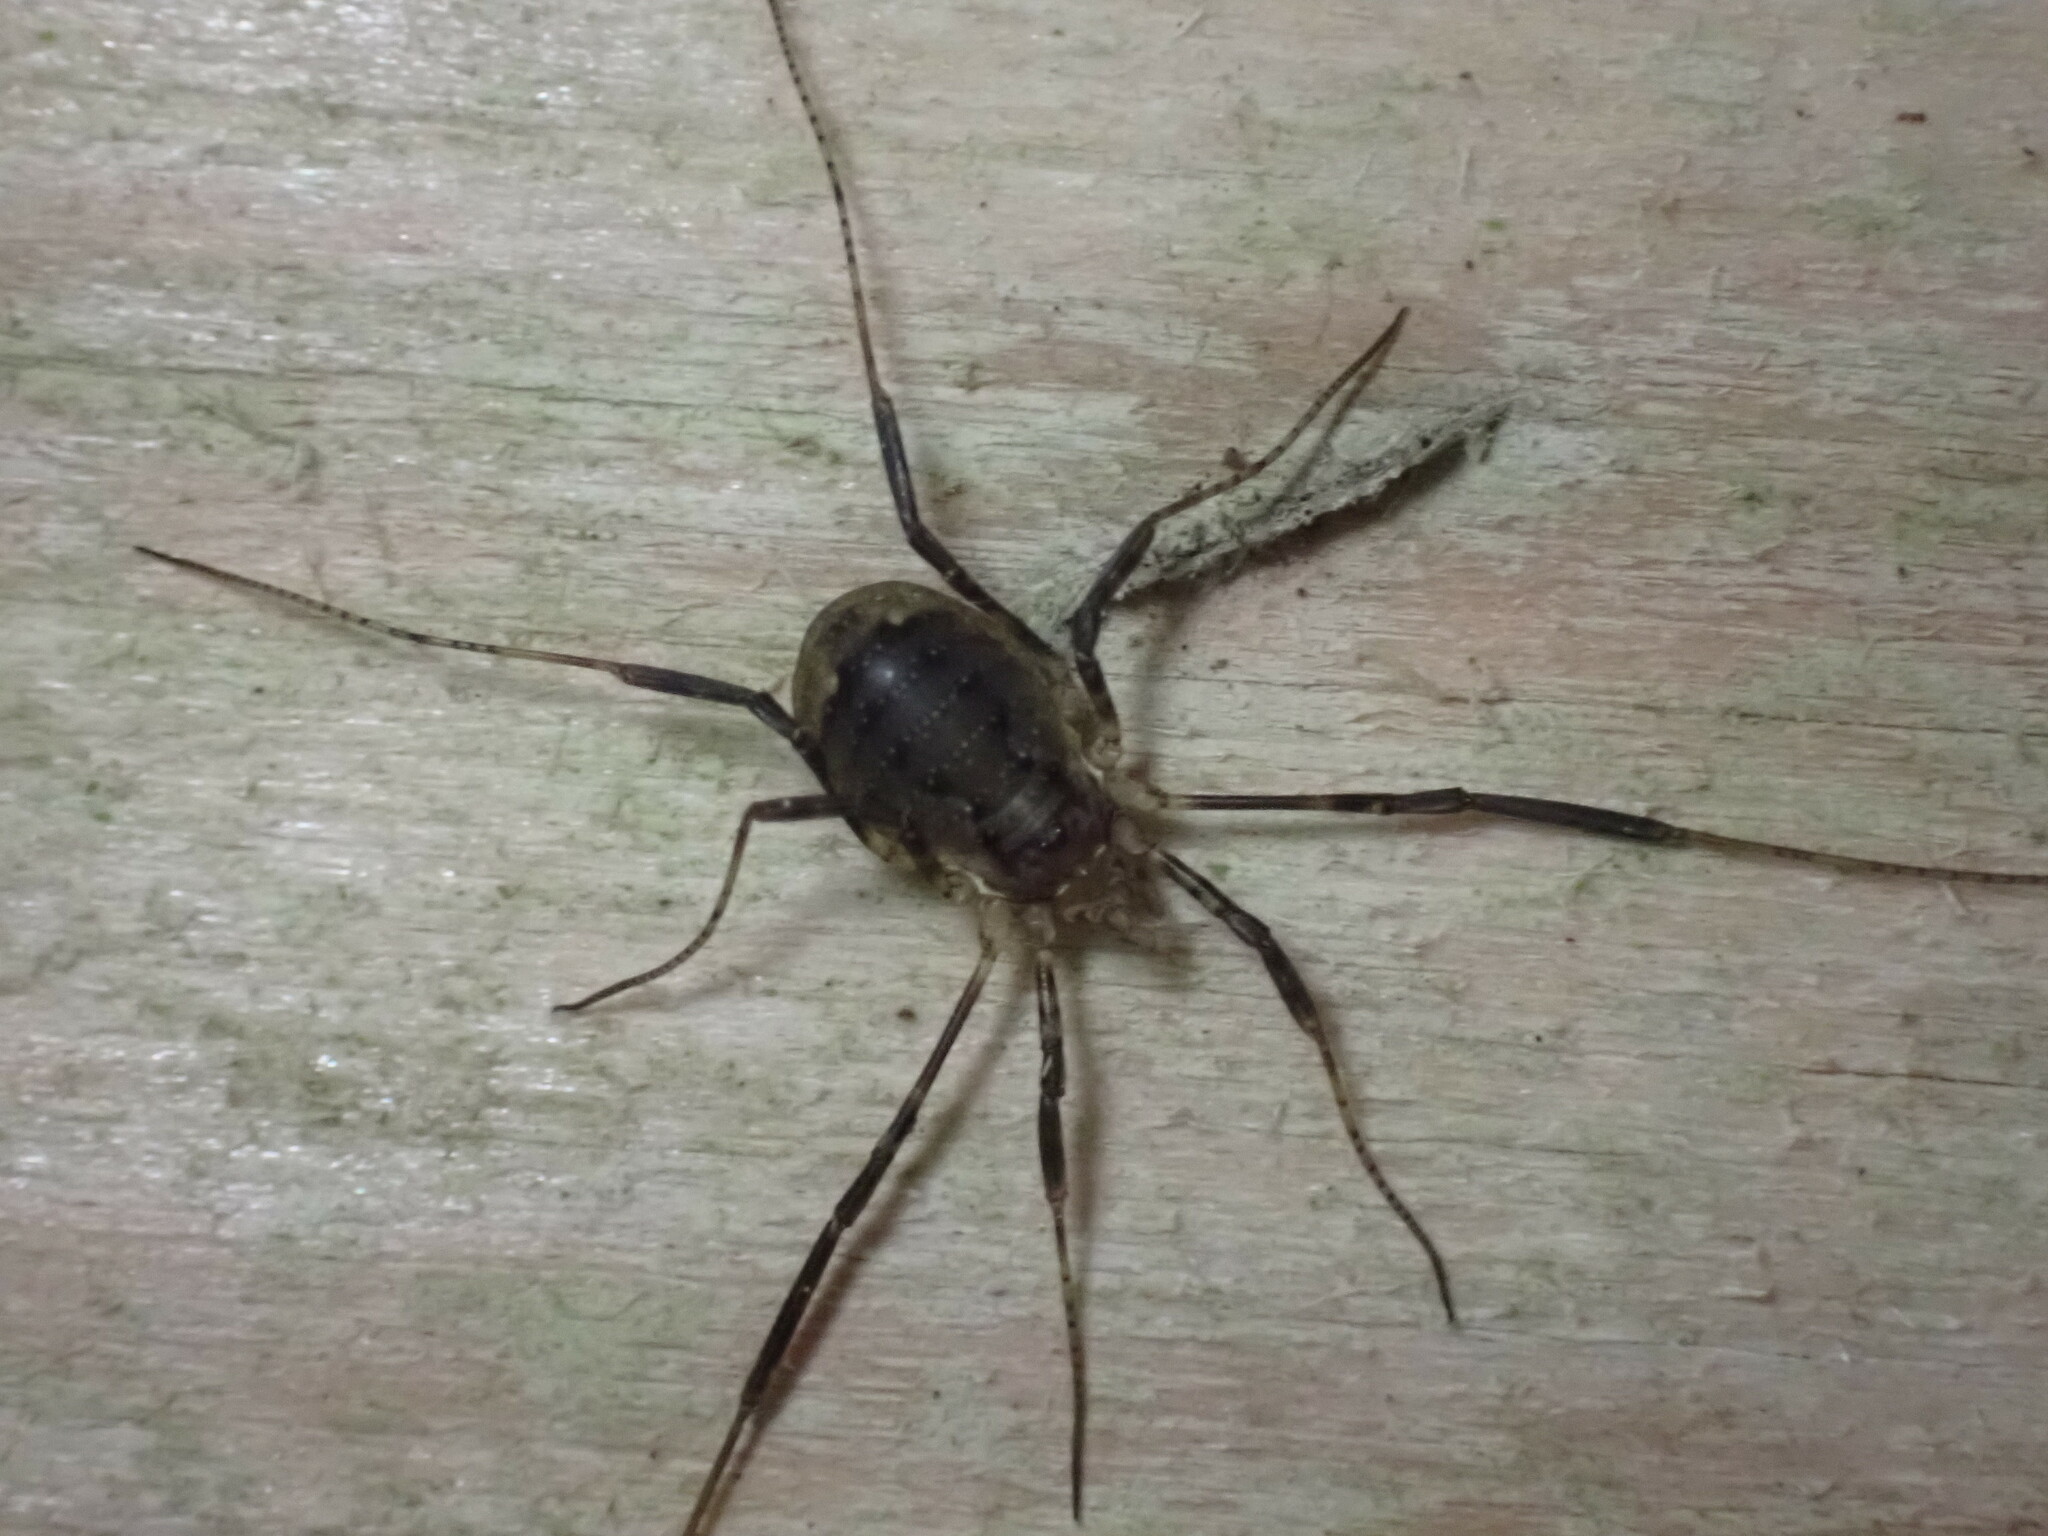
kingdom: Animalia
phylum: Arthropoda
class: Arachnida
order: Opiliones
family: Phalangiidae
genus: Oligolophus
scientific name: Oligolophus hansenii
